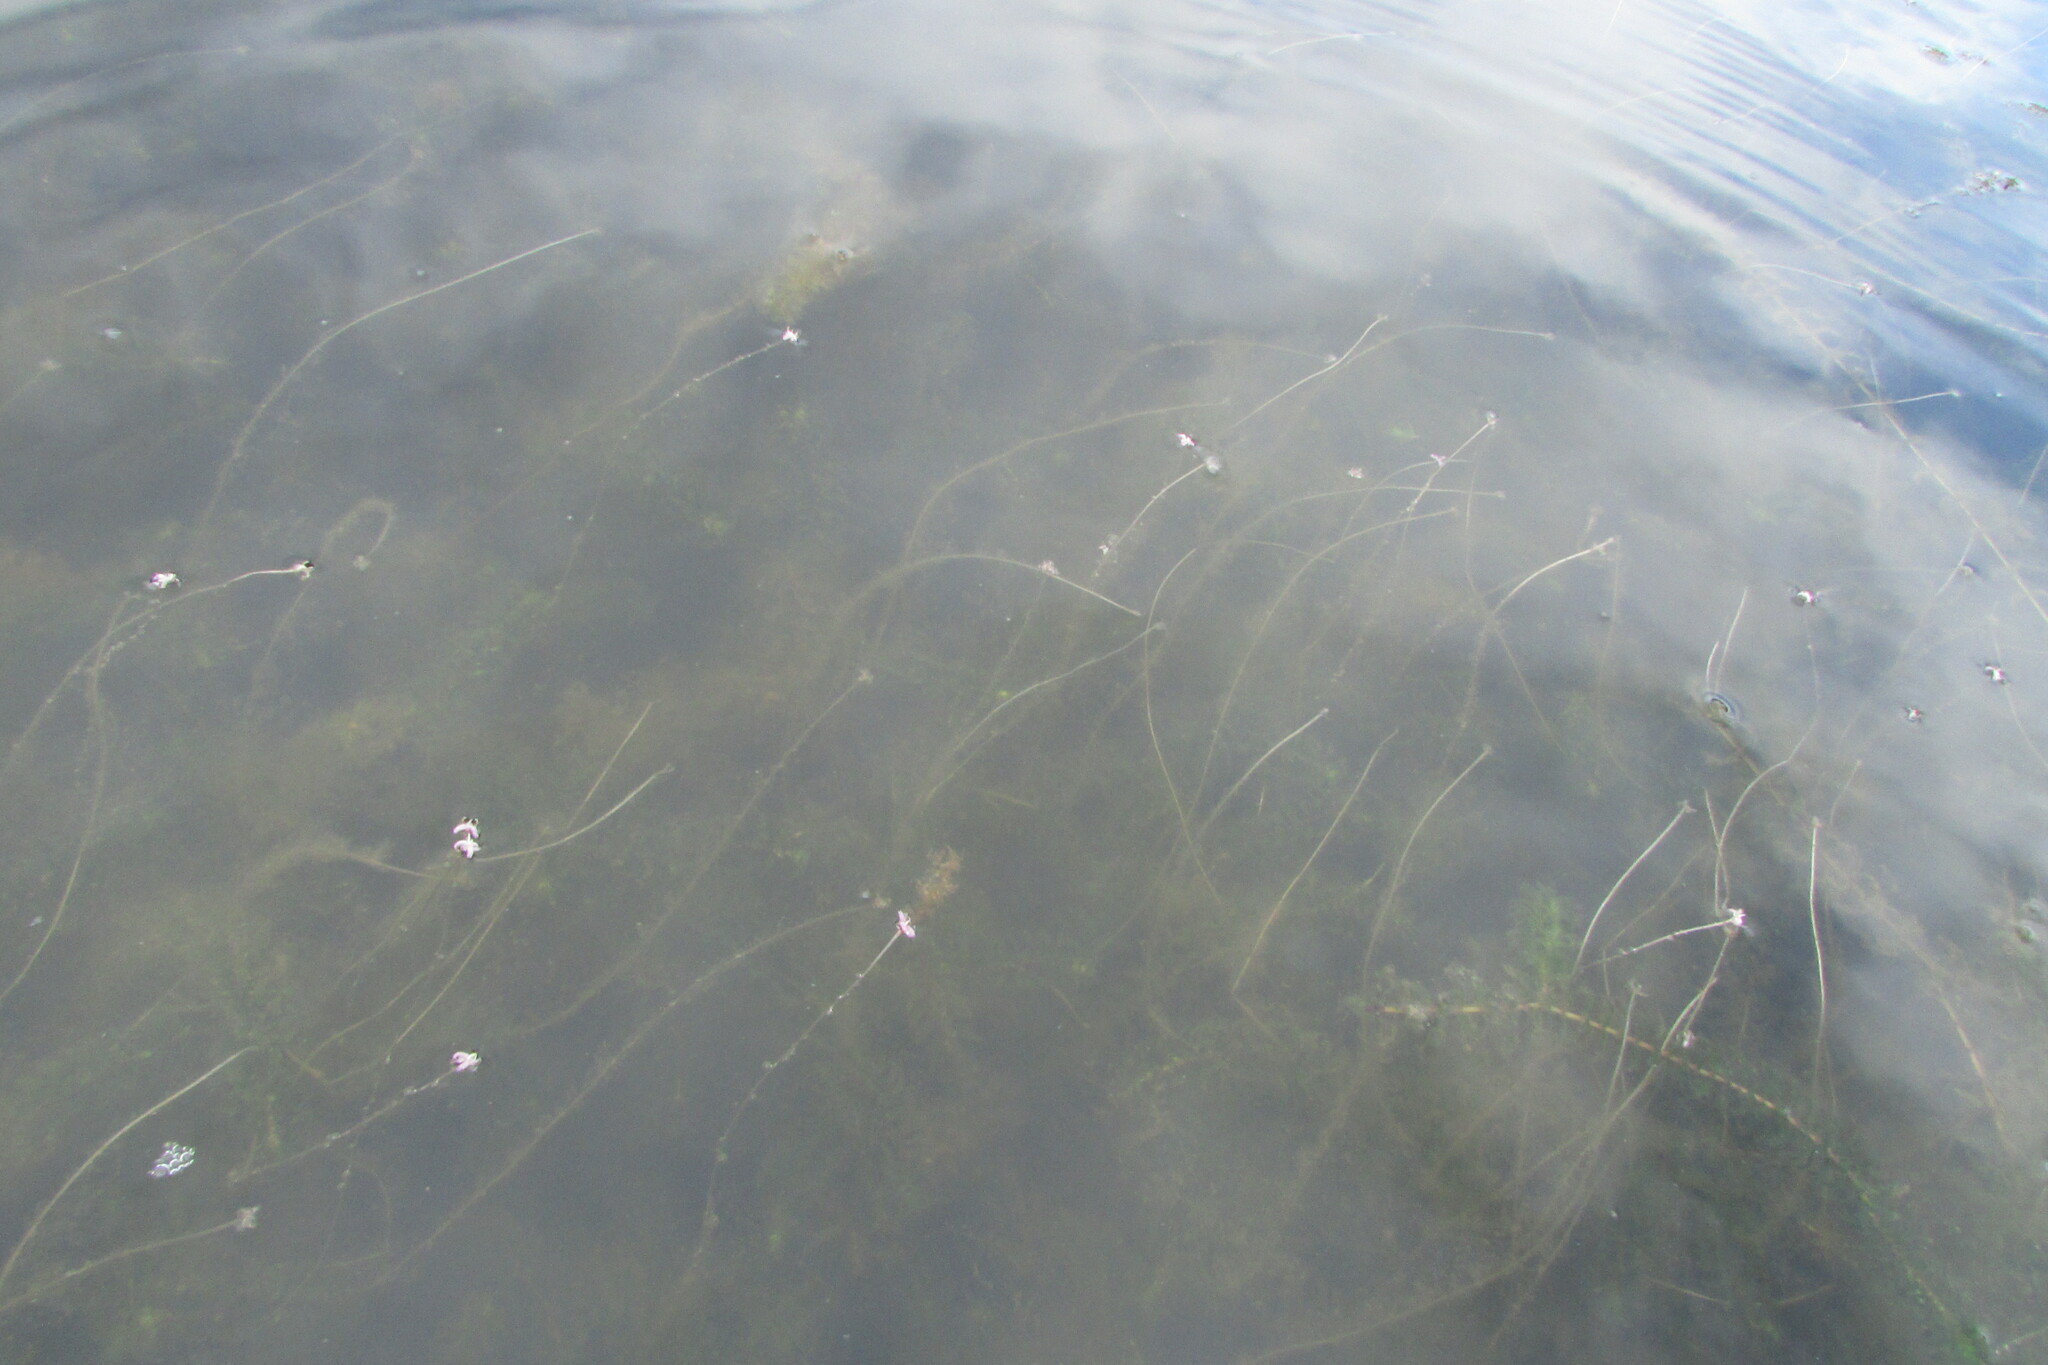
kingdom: Plantae
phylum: Tracheophyta
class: Liliopsida
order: Alismatales
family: Hydrocharitaceae
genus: Elodea
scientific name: Elodea canadensis
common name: Canadian waterweed
